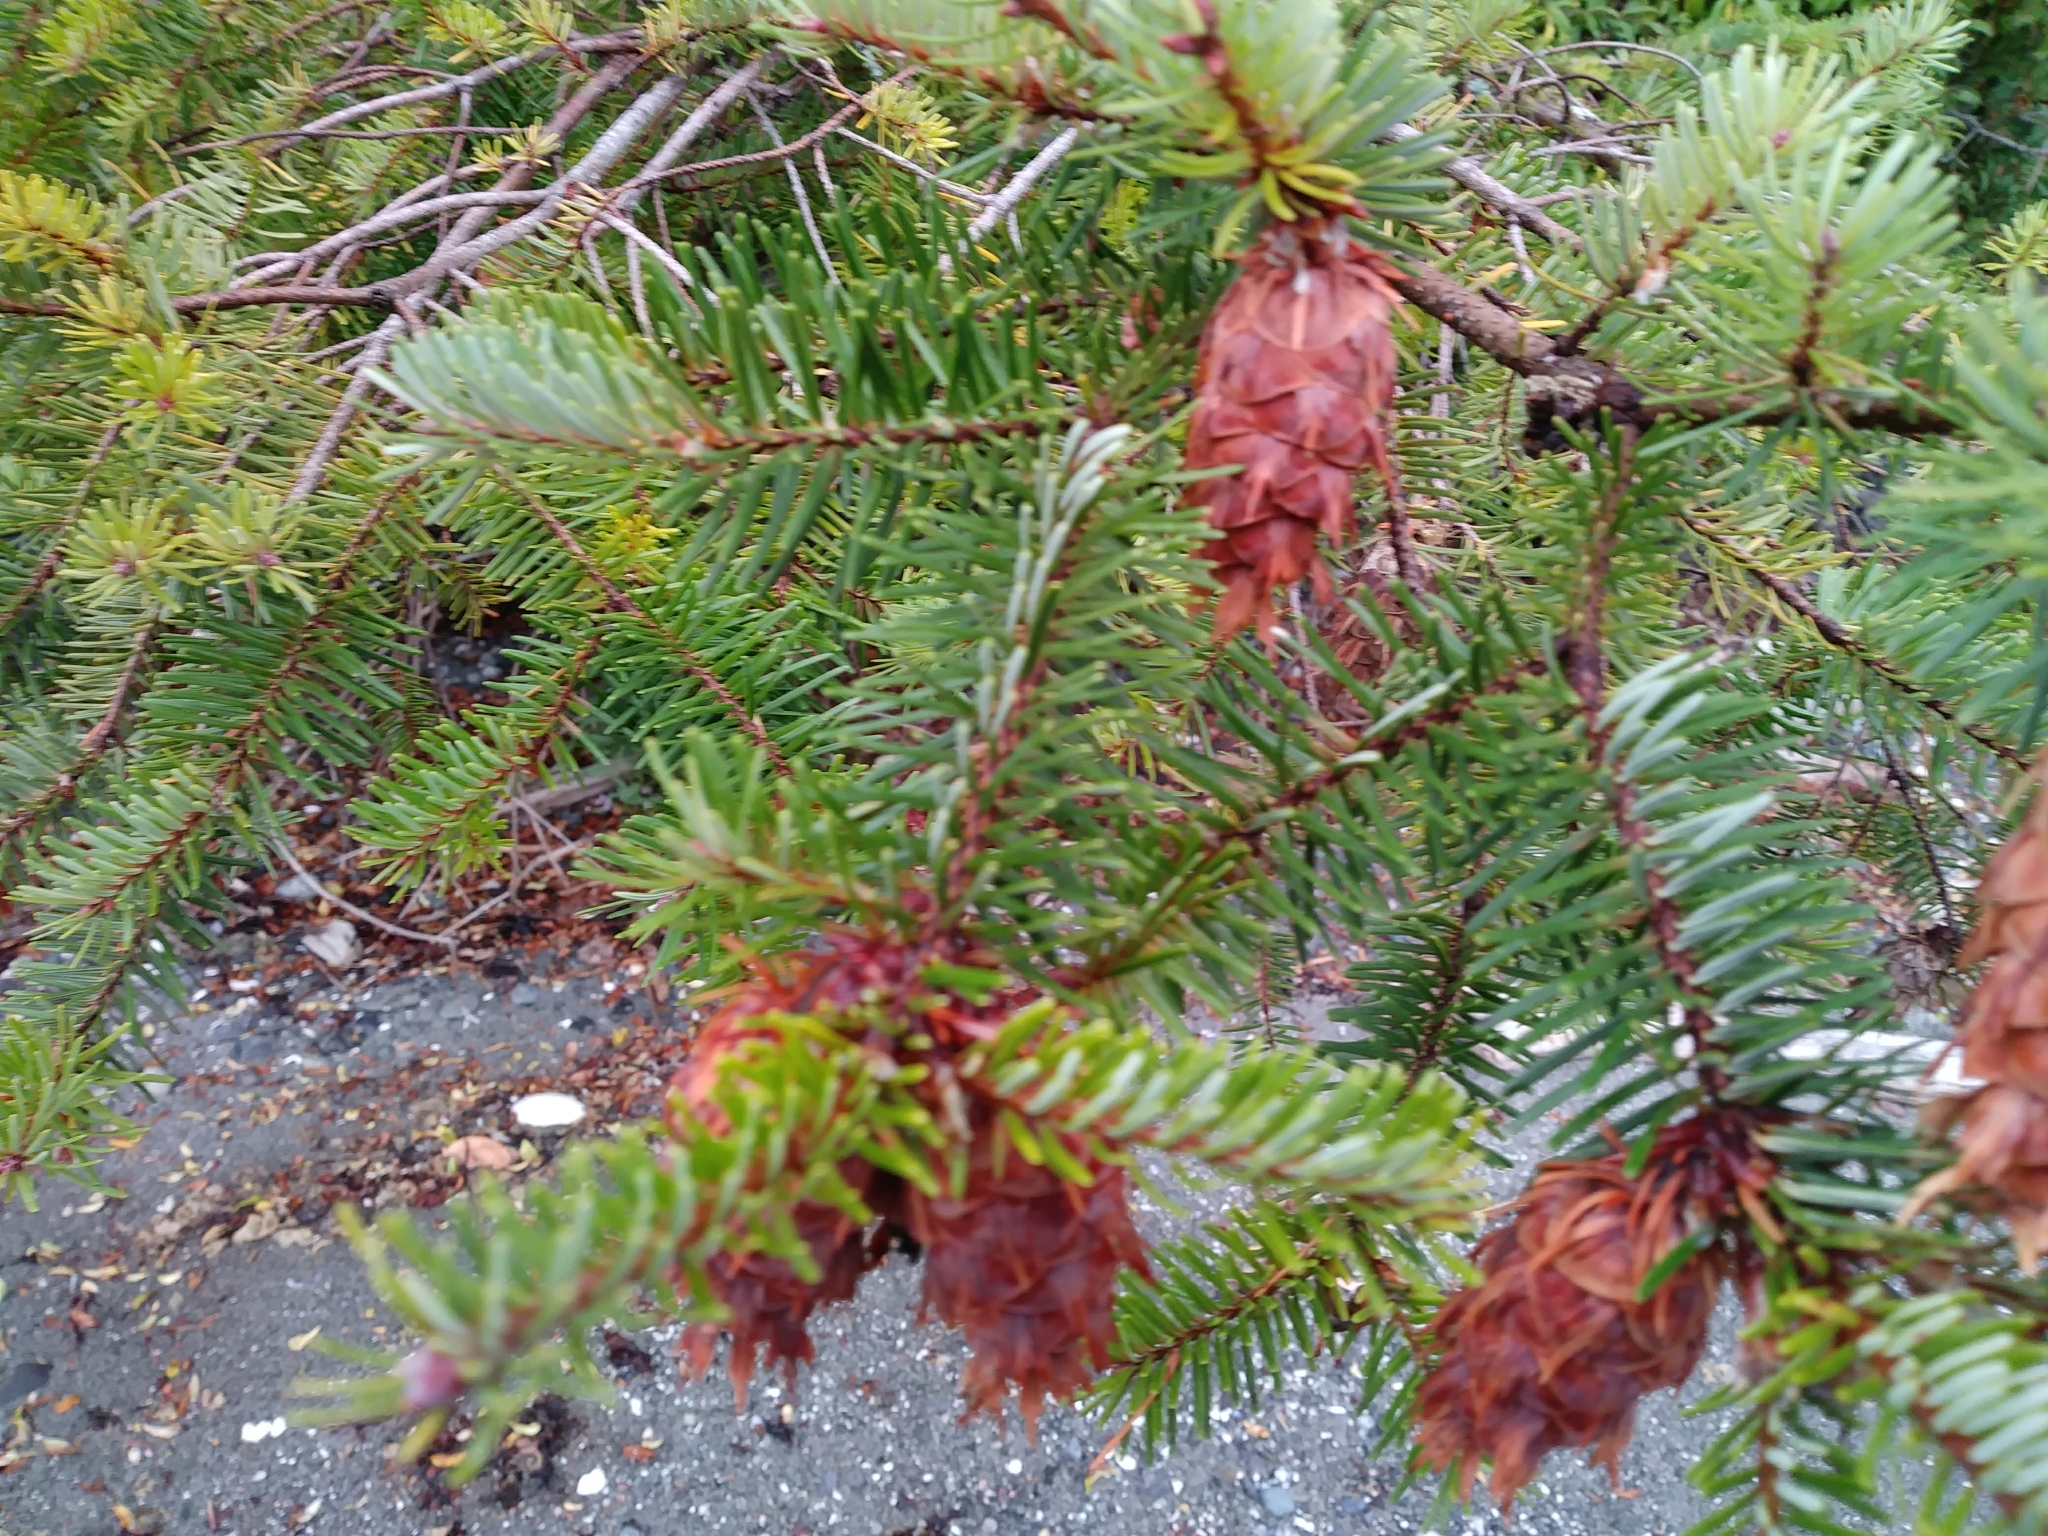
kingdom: Plantae
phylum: Tracheophyta
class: Pinopsida
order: Pinales
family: Pinaceae
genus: Pseudotsuga
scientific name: Pseudotsuga menziesii
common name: Douglas fir
